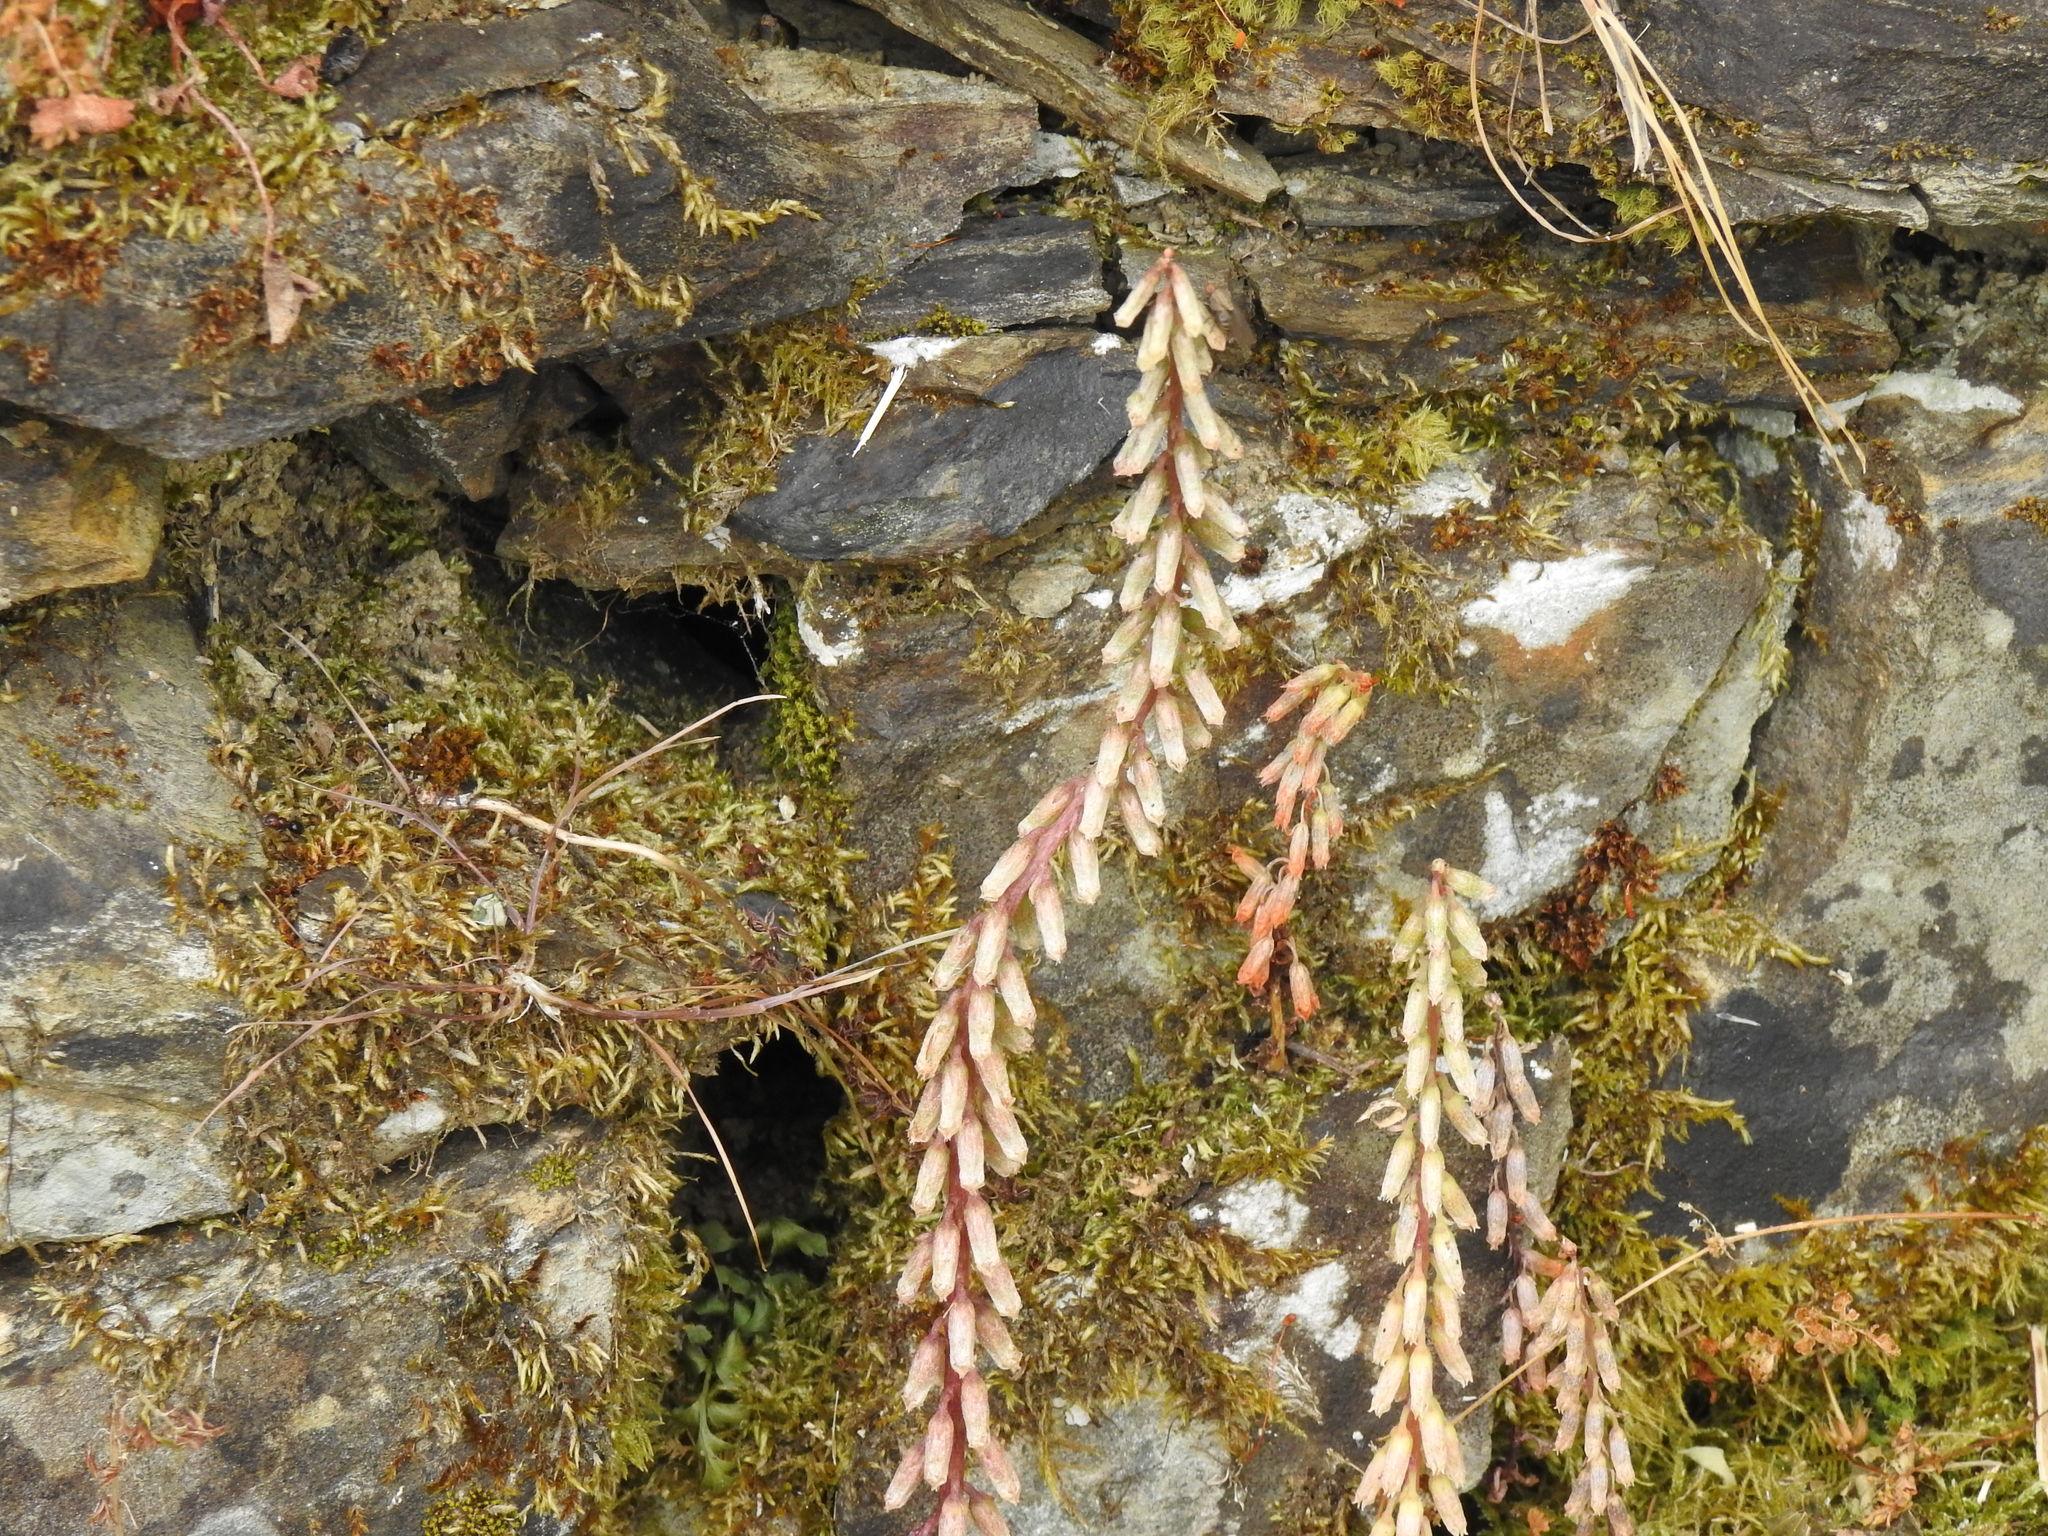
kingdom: Plantae
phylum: Tracheophyta
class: Magnoliopsida
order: Saxifragales
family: Crassulaceae
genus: Umbilicus
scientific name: Umbilicus rupestris
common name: Navelwort
